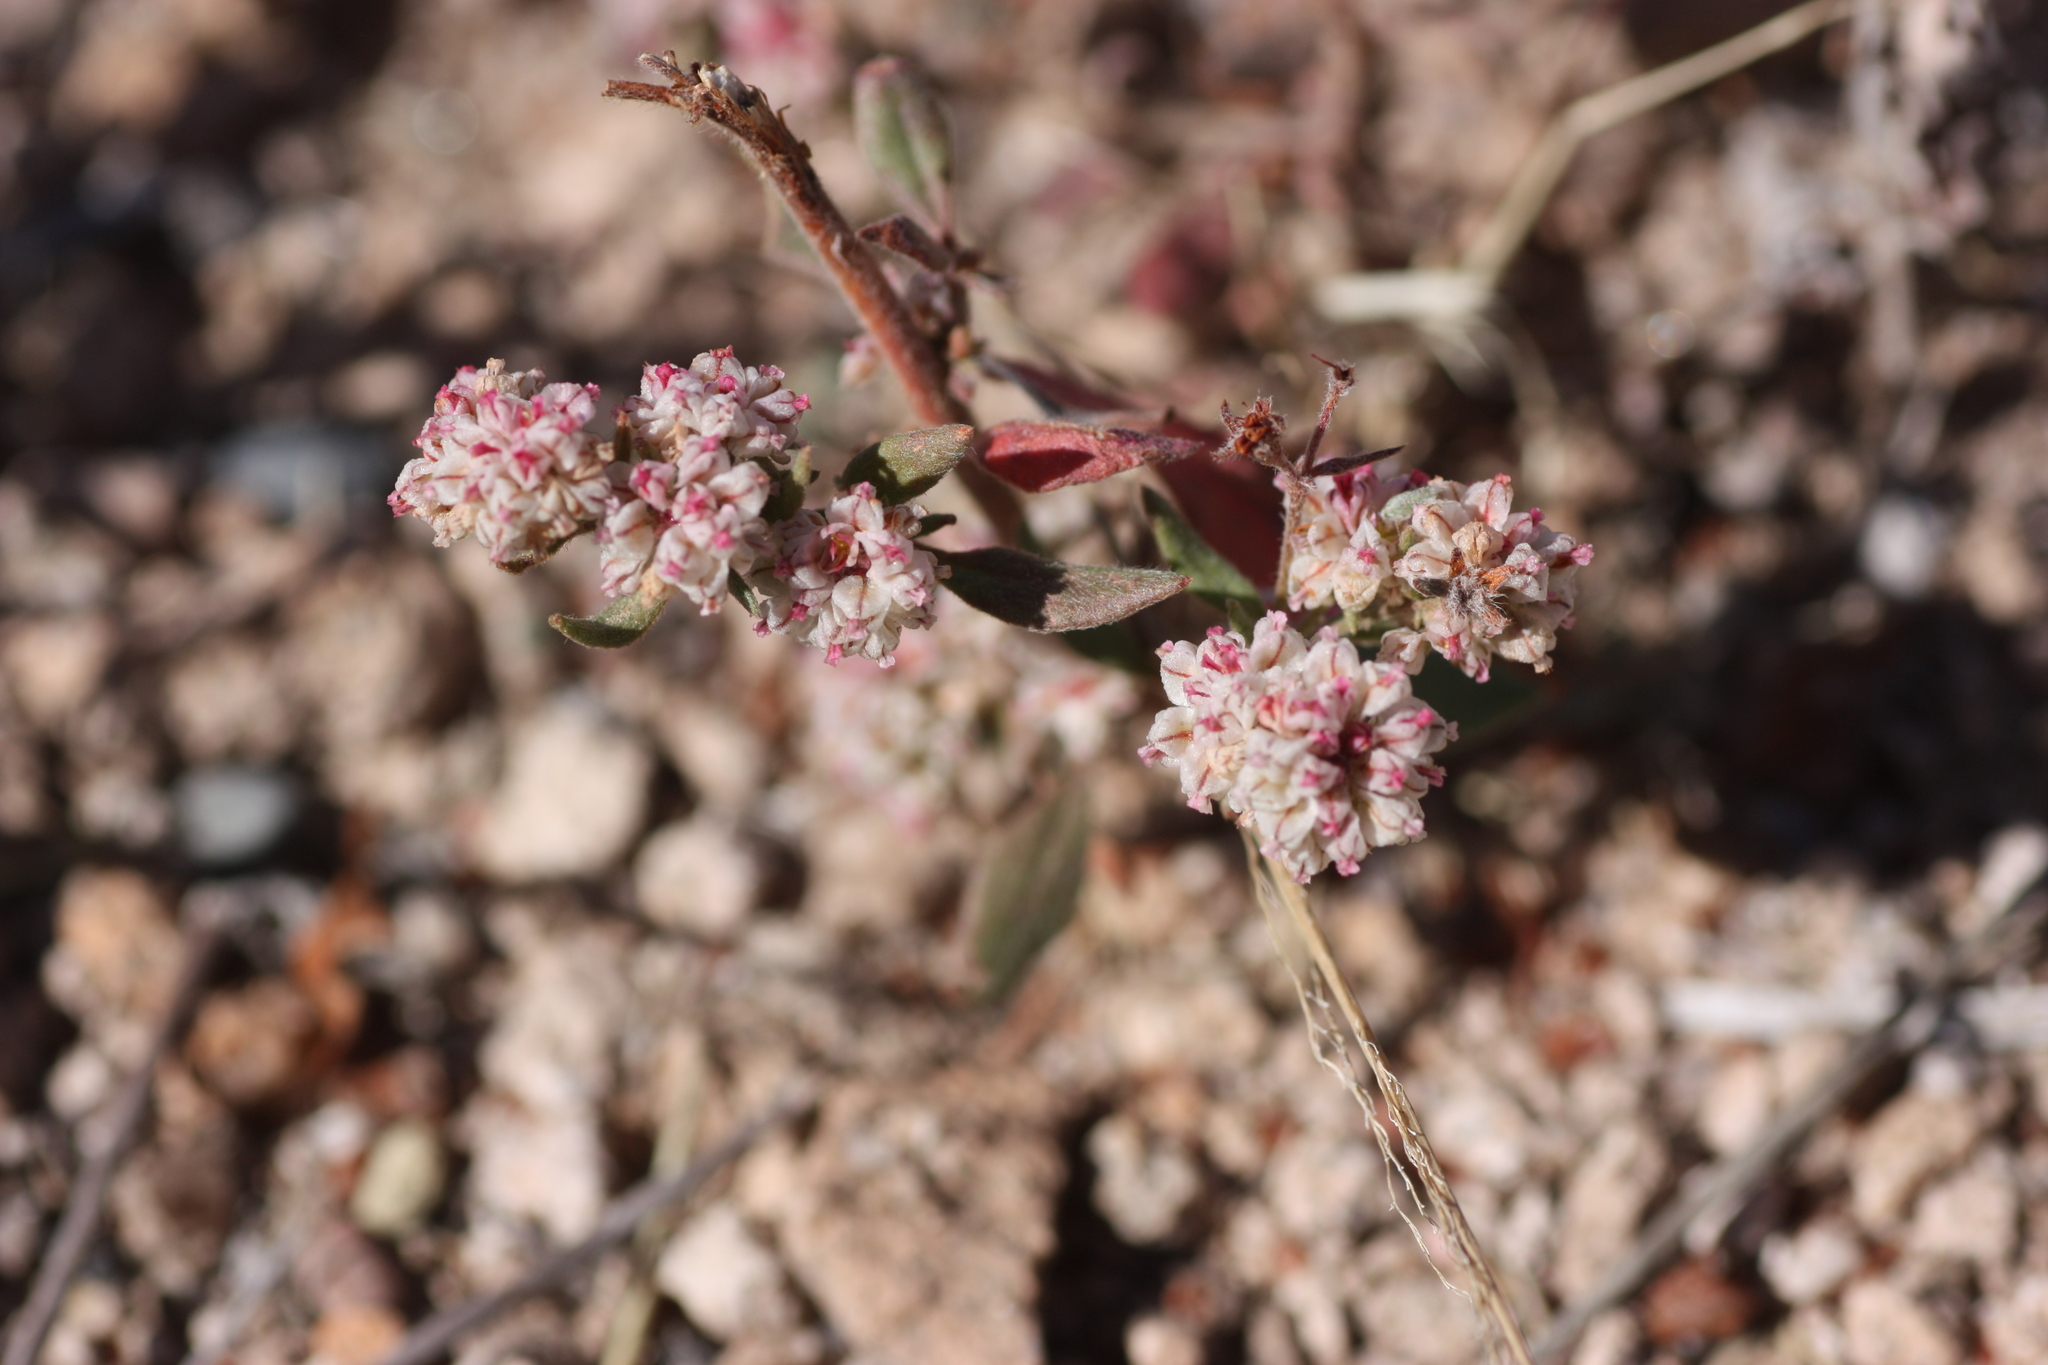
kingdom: Plantae
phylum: Tracheophyta
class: Magnoliopsida
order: Caryophyllales
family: Polygonaceae
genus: Eriogonum
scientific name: Eriogonum abertianum
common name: Abert's wild buckwheat
